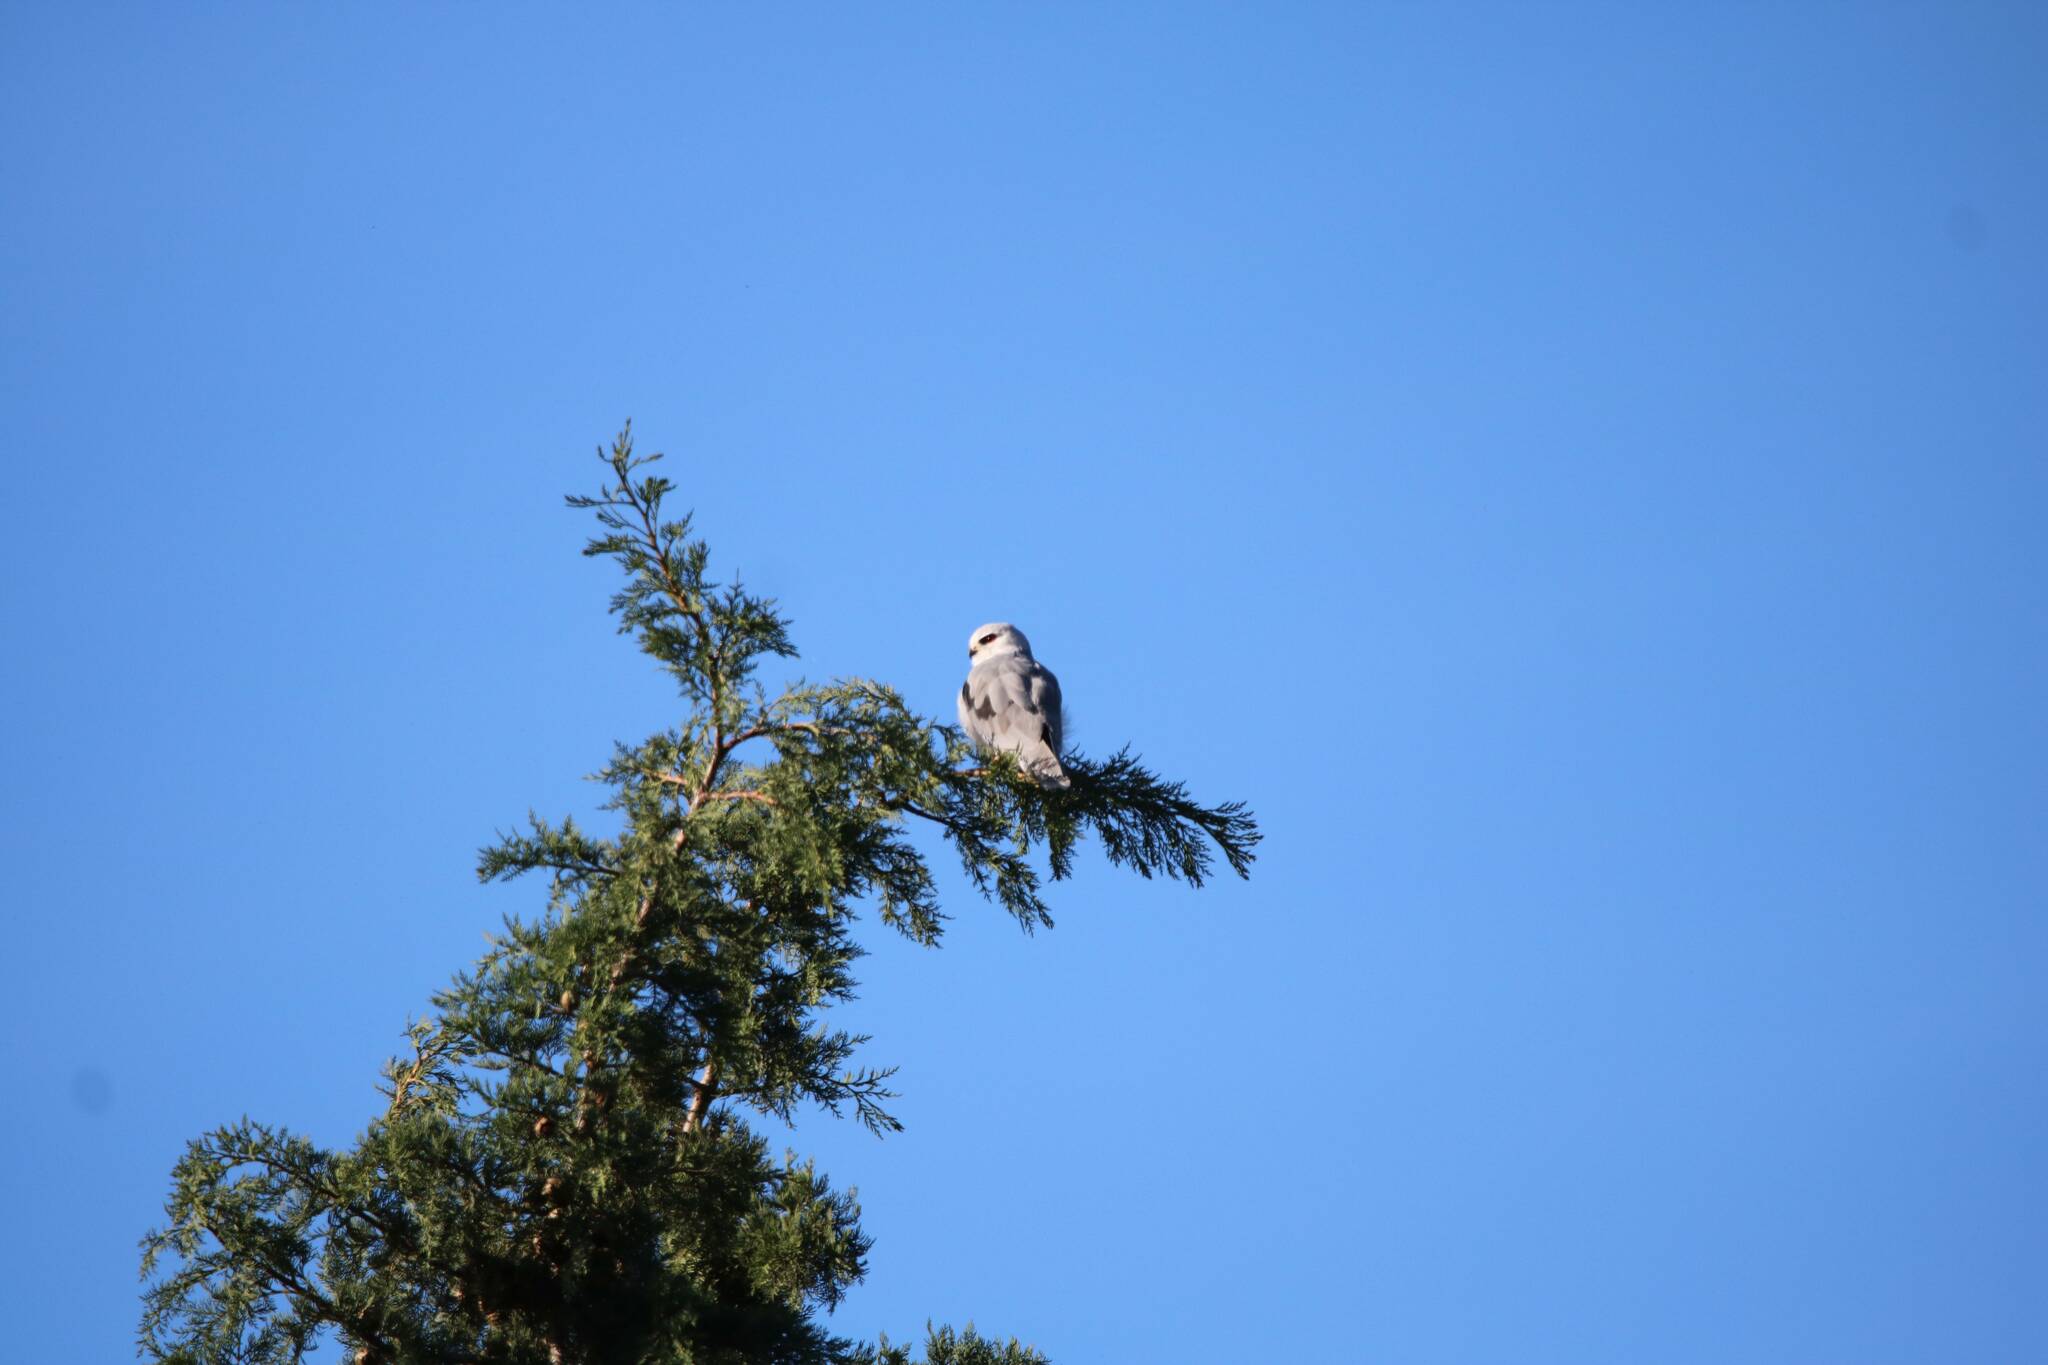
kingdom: Animalia
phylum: Chordata
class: Aves
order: Accipitriformes
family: Accipitridae
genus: Elanus
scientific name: Elanus caeruleus
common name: Black-winged kite
